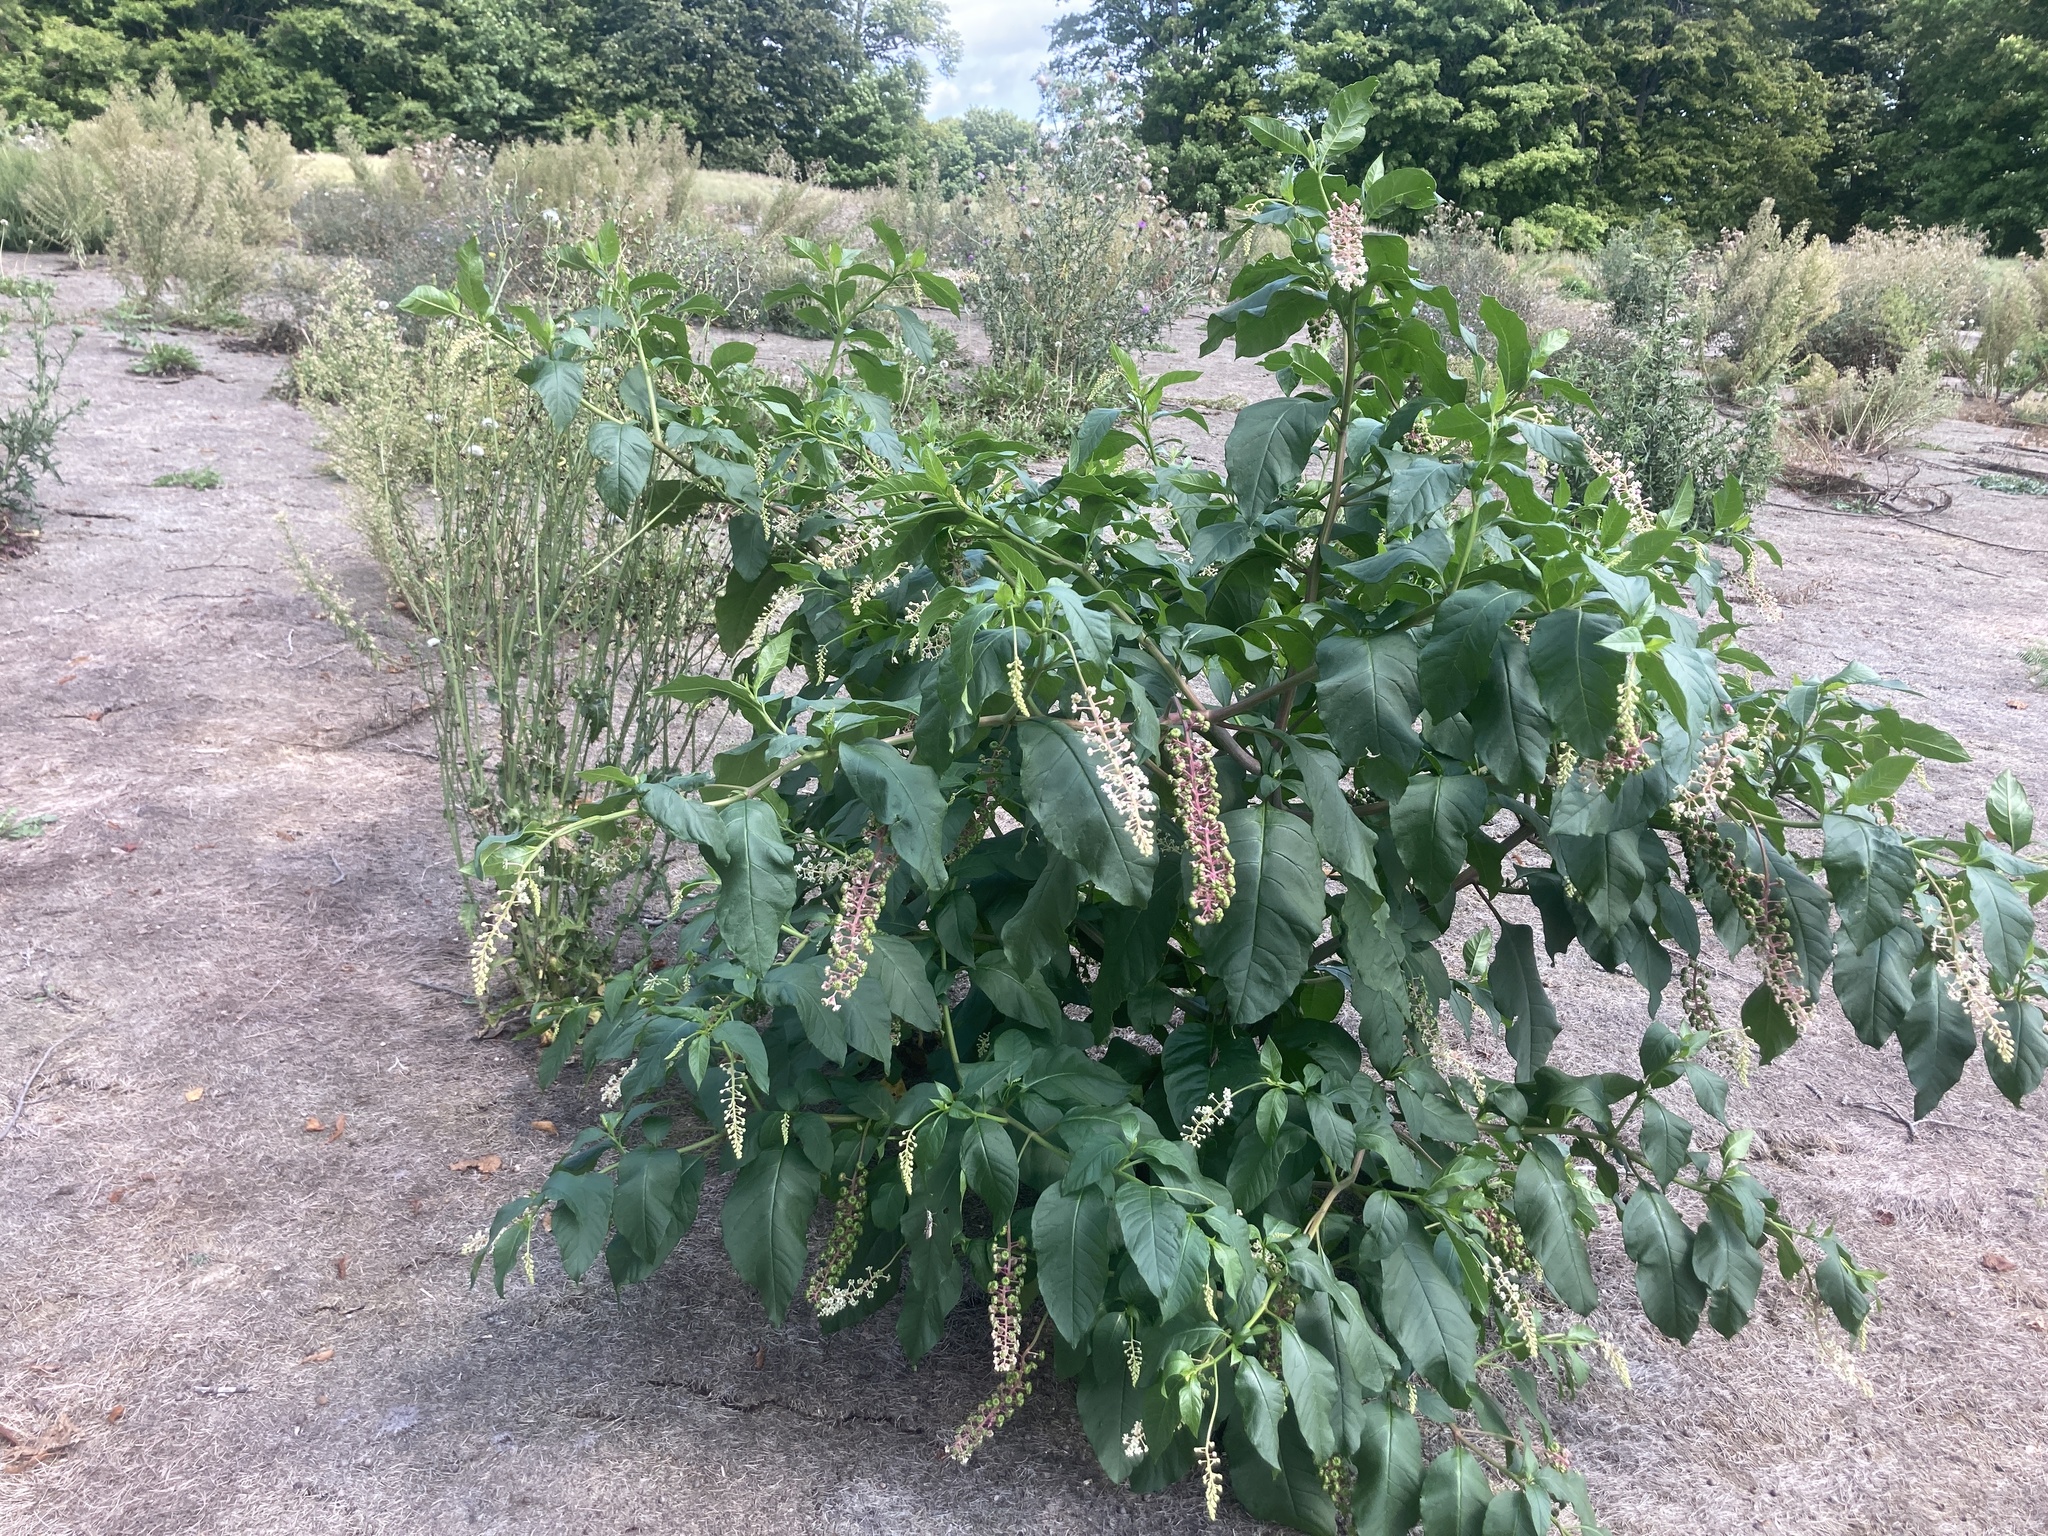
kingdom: Plantae
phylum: Tracheophyta
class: Magnoliopsida
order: Caryophyllales
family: Phytolaccaceae
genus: Phytolacca
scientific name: Phytolacca americana
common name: American pokeweed
